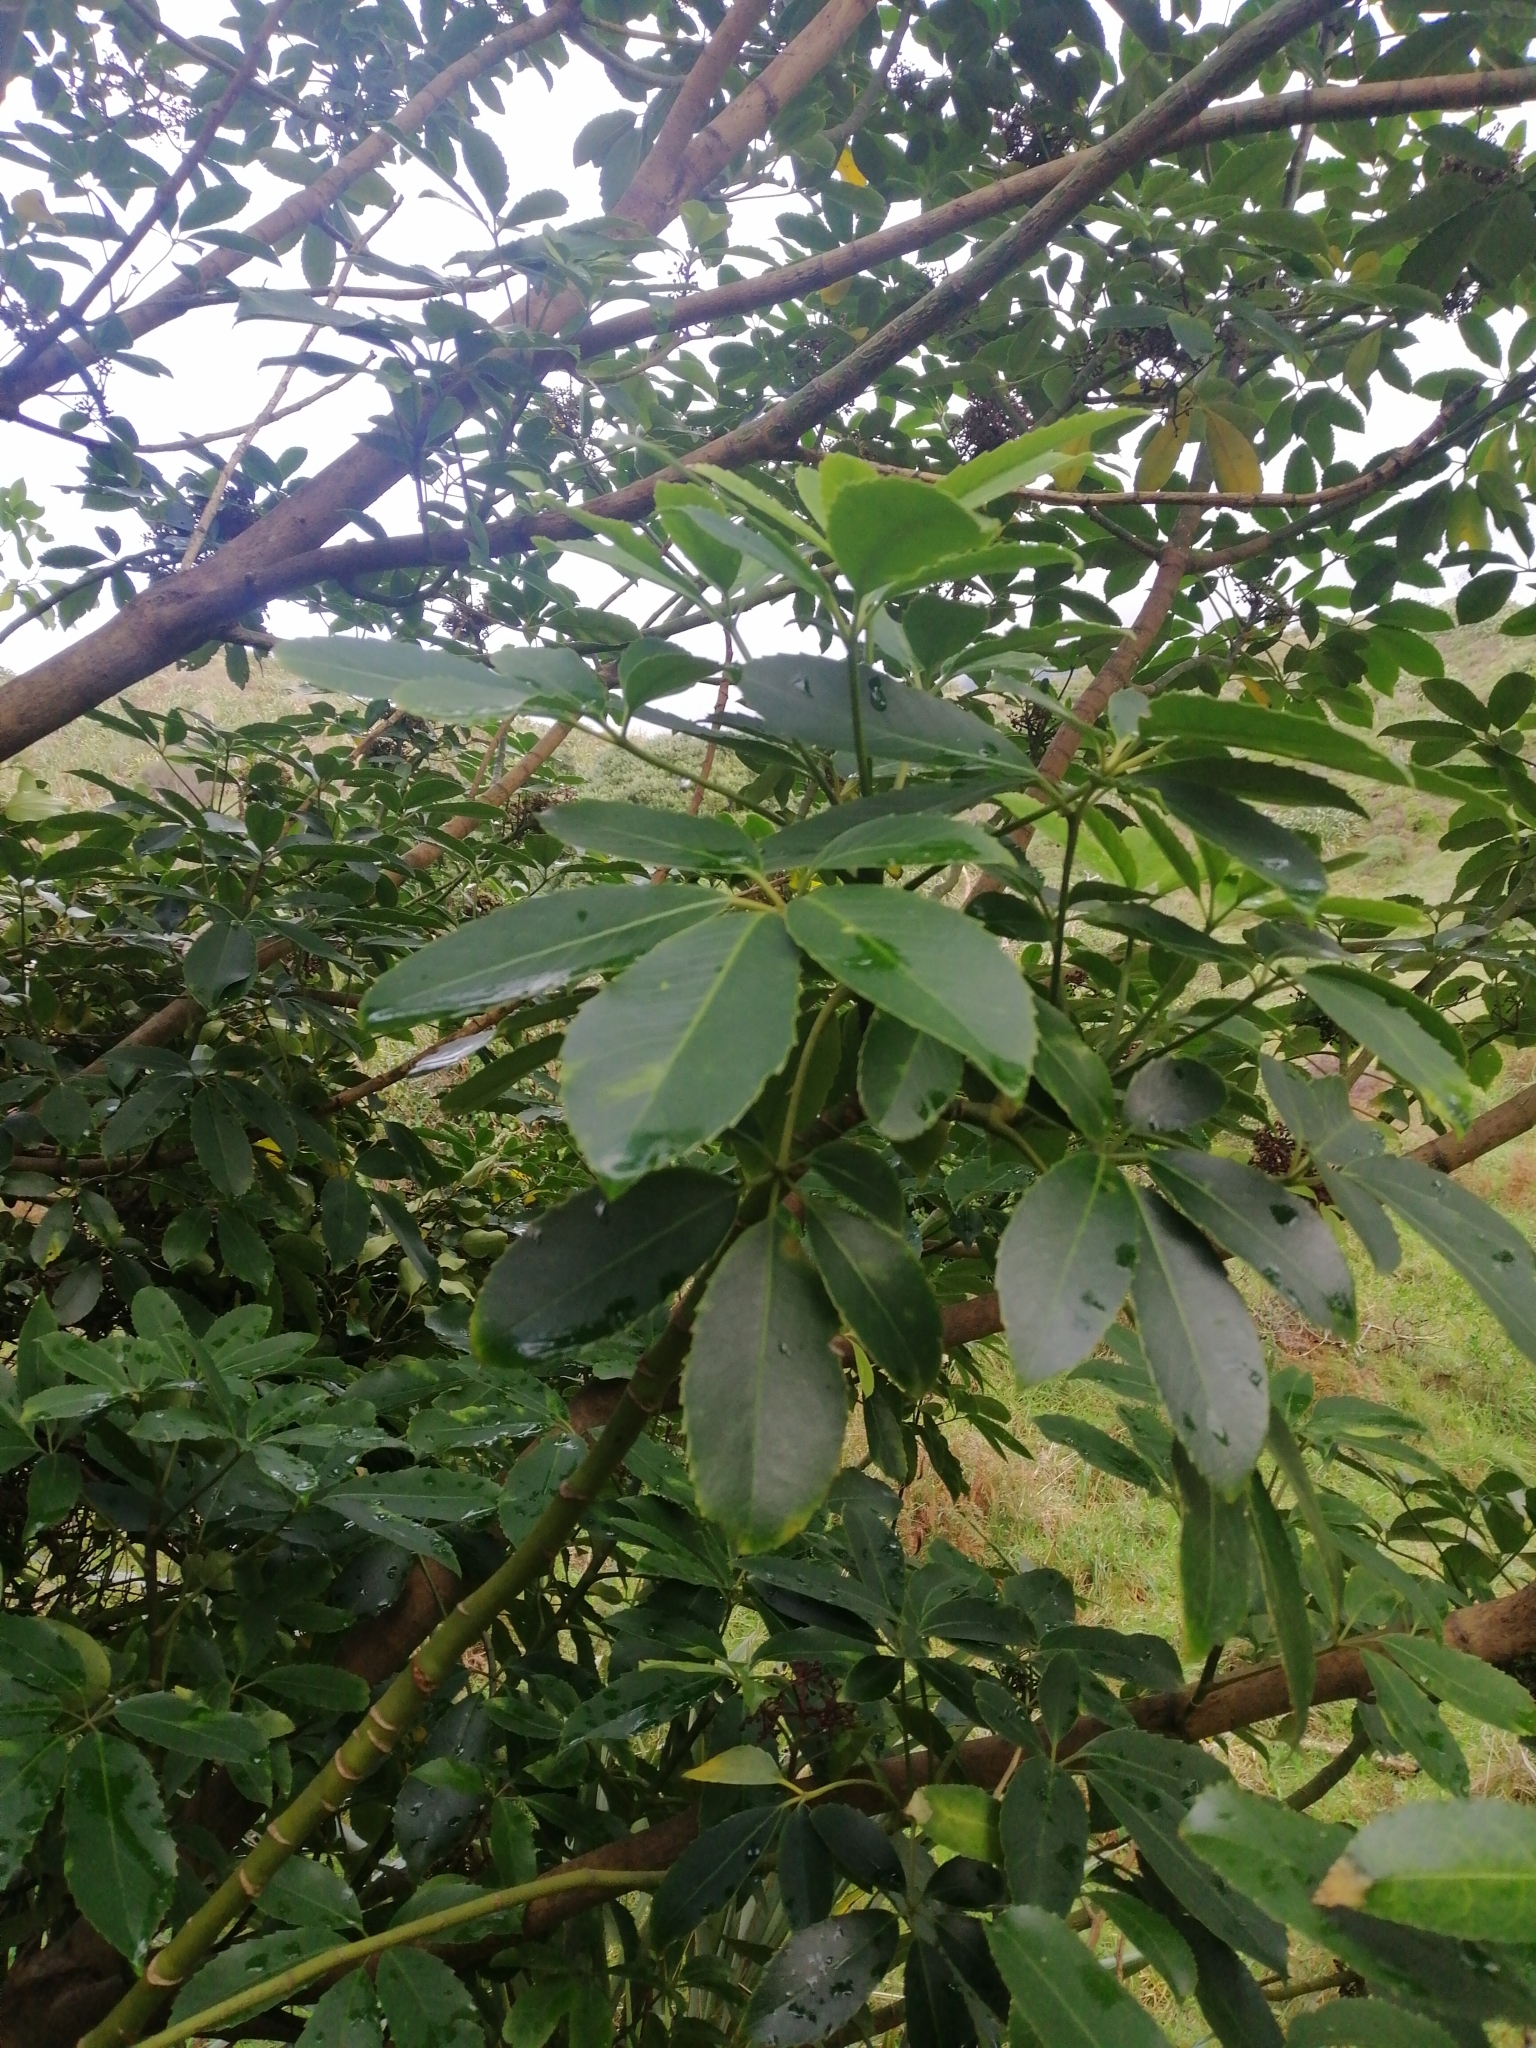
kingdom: Plantae
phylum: Tracheophyta
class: Magnoliopsida
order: Apiales
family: Araliaceae
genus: Neopanax
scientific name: Neopanax arboreus
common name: Five-fingers
